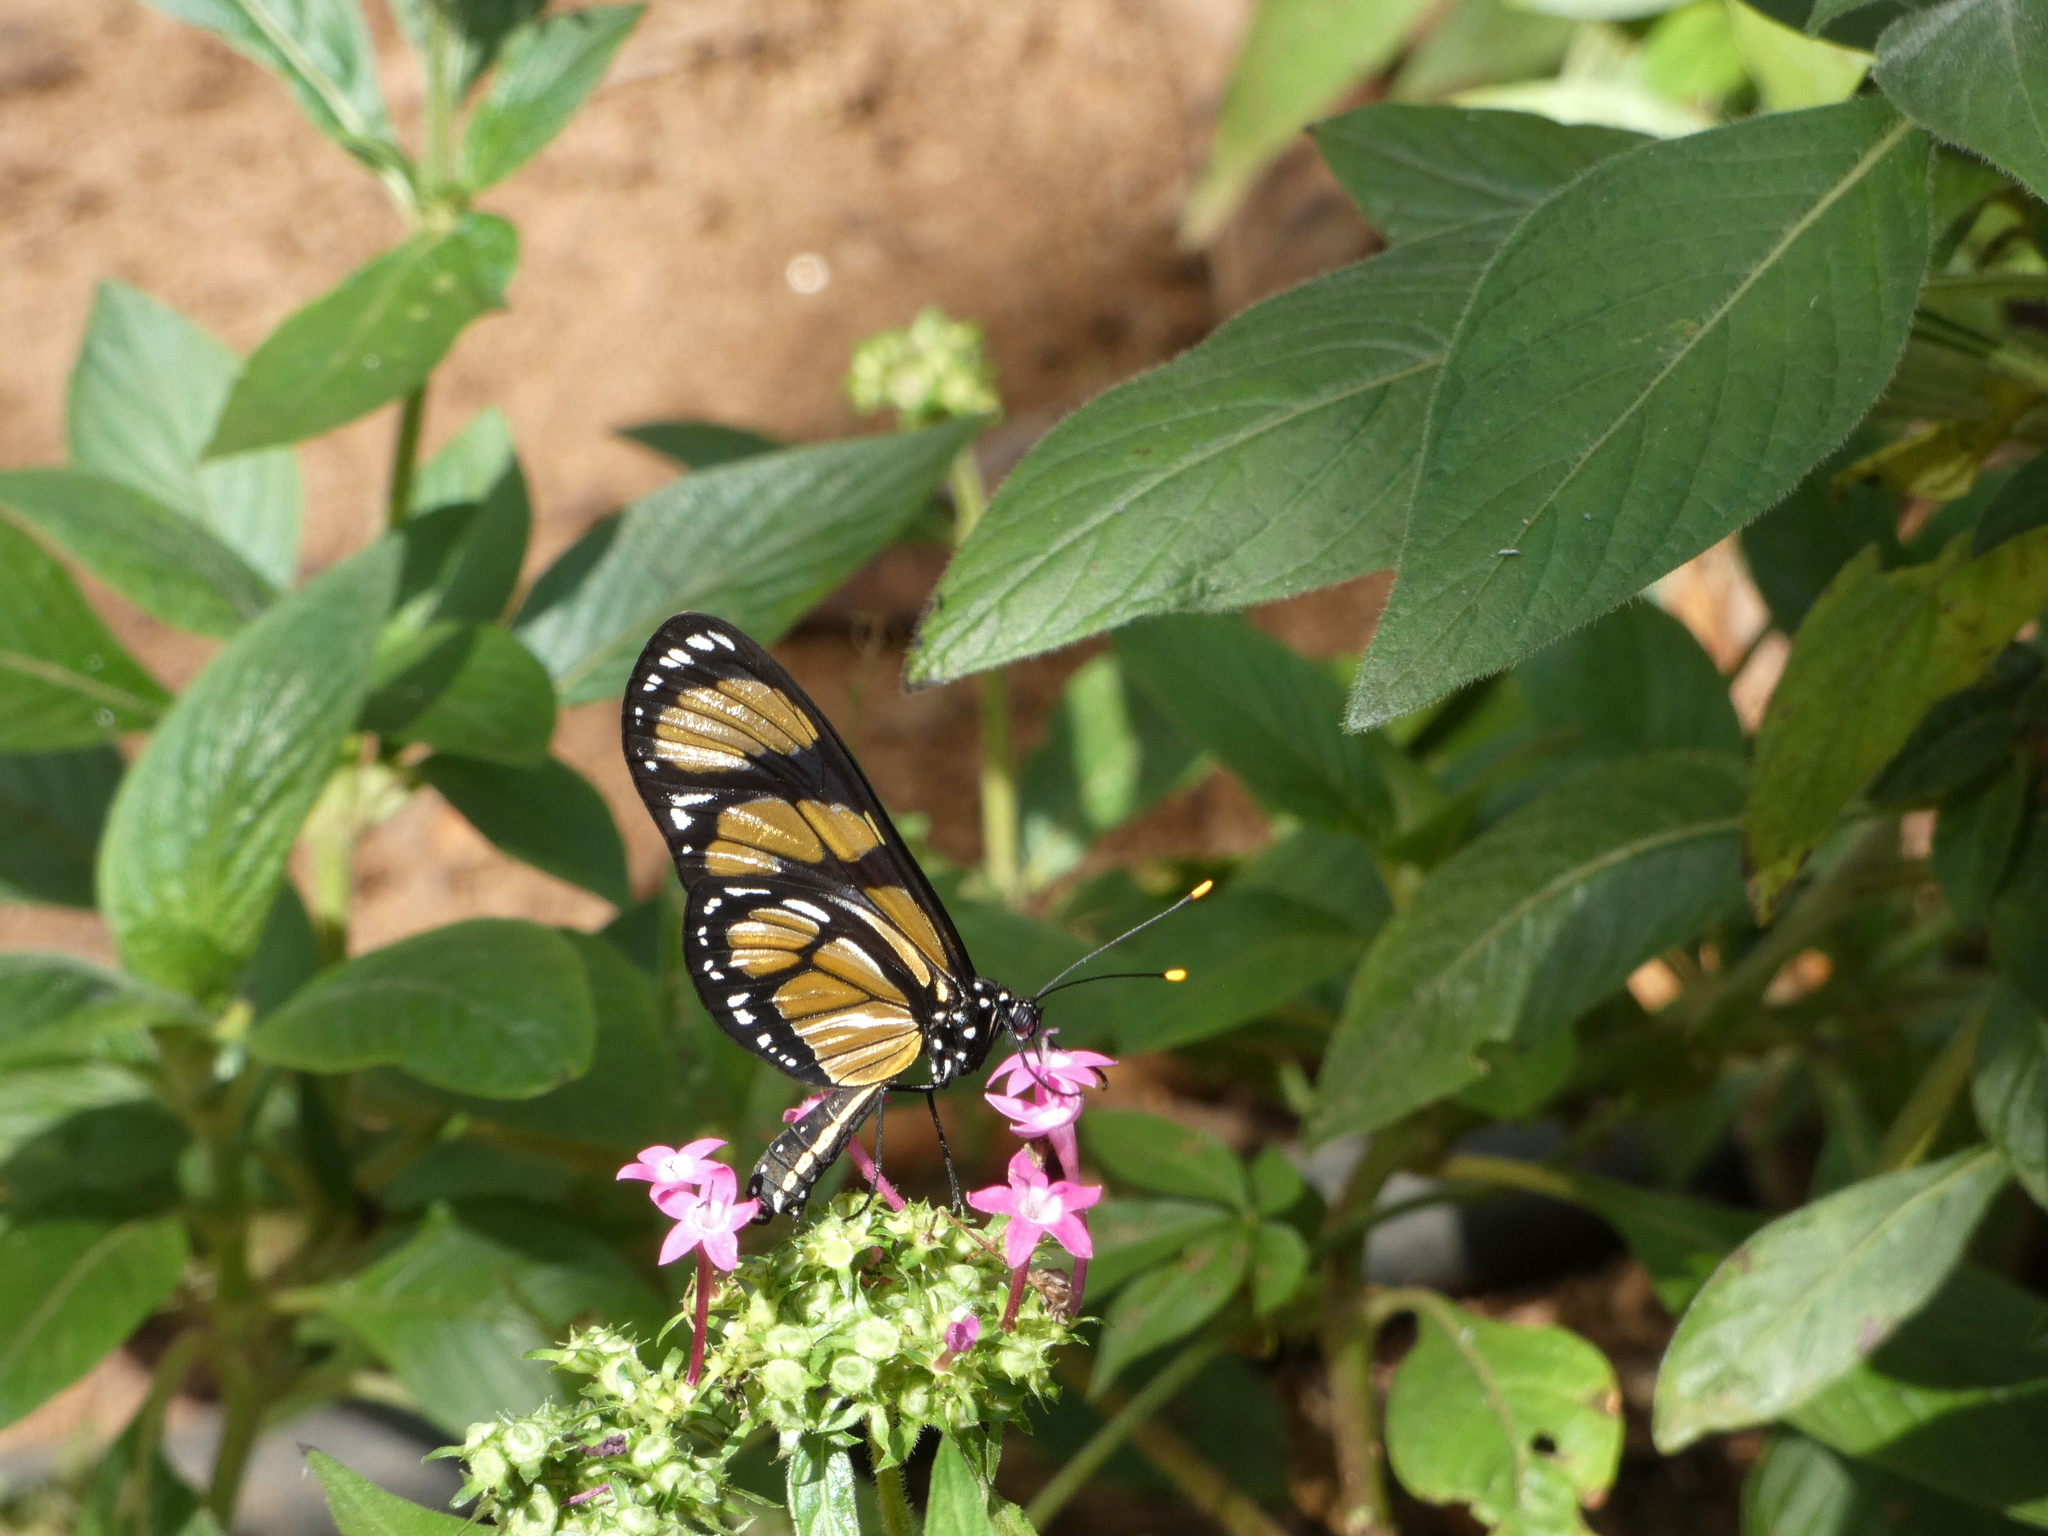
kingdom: Animalia
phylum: Arthropoda
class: Insecta
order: Lepidoptera
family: Nymphalidae
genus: Methona
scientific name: Methona themisto
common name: Themisto amberwing
